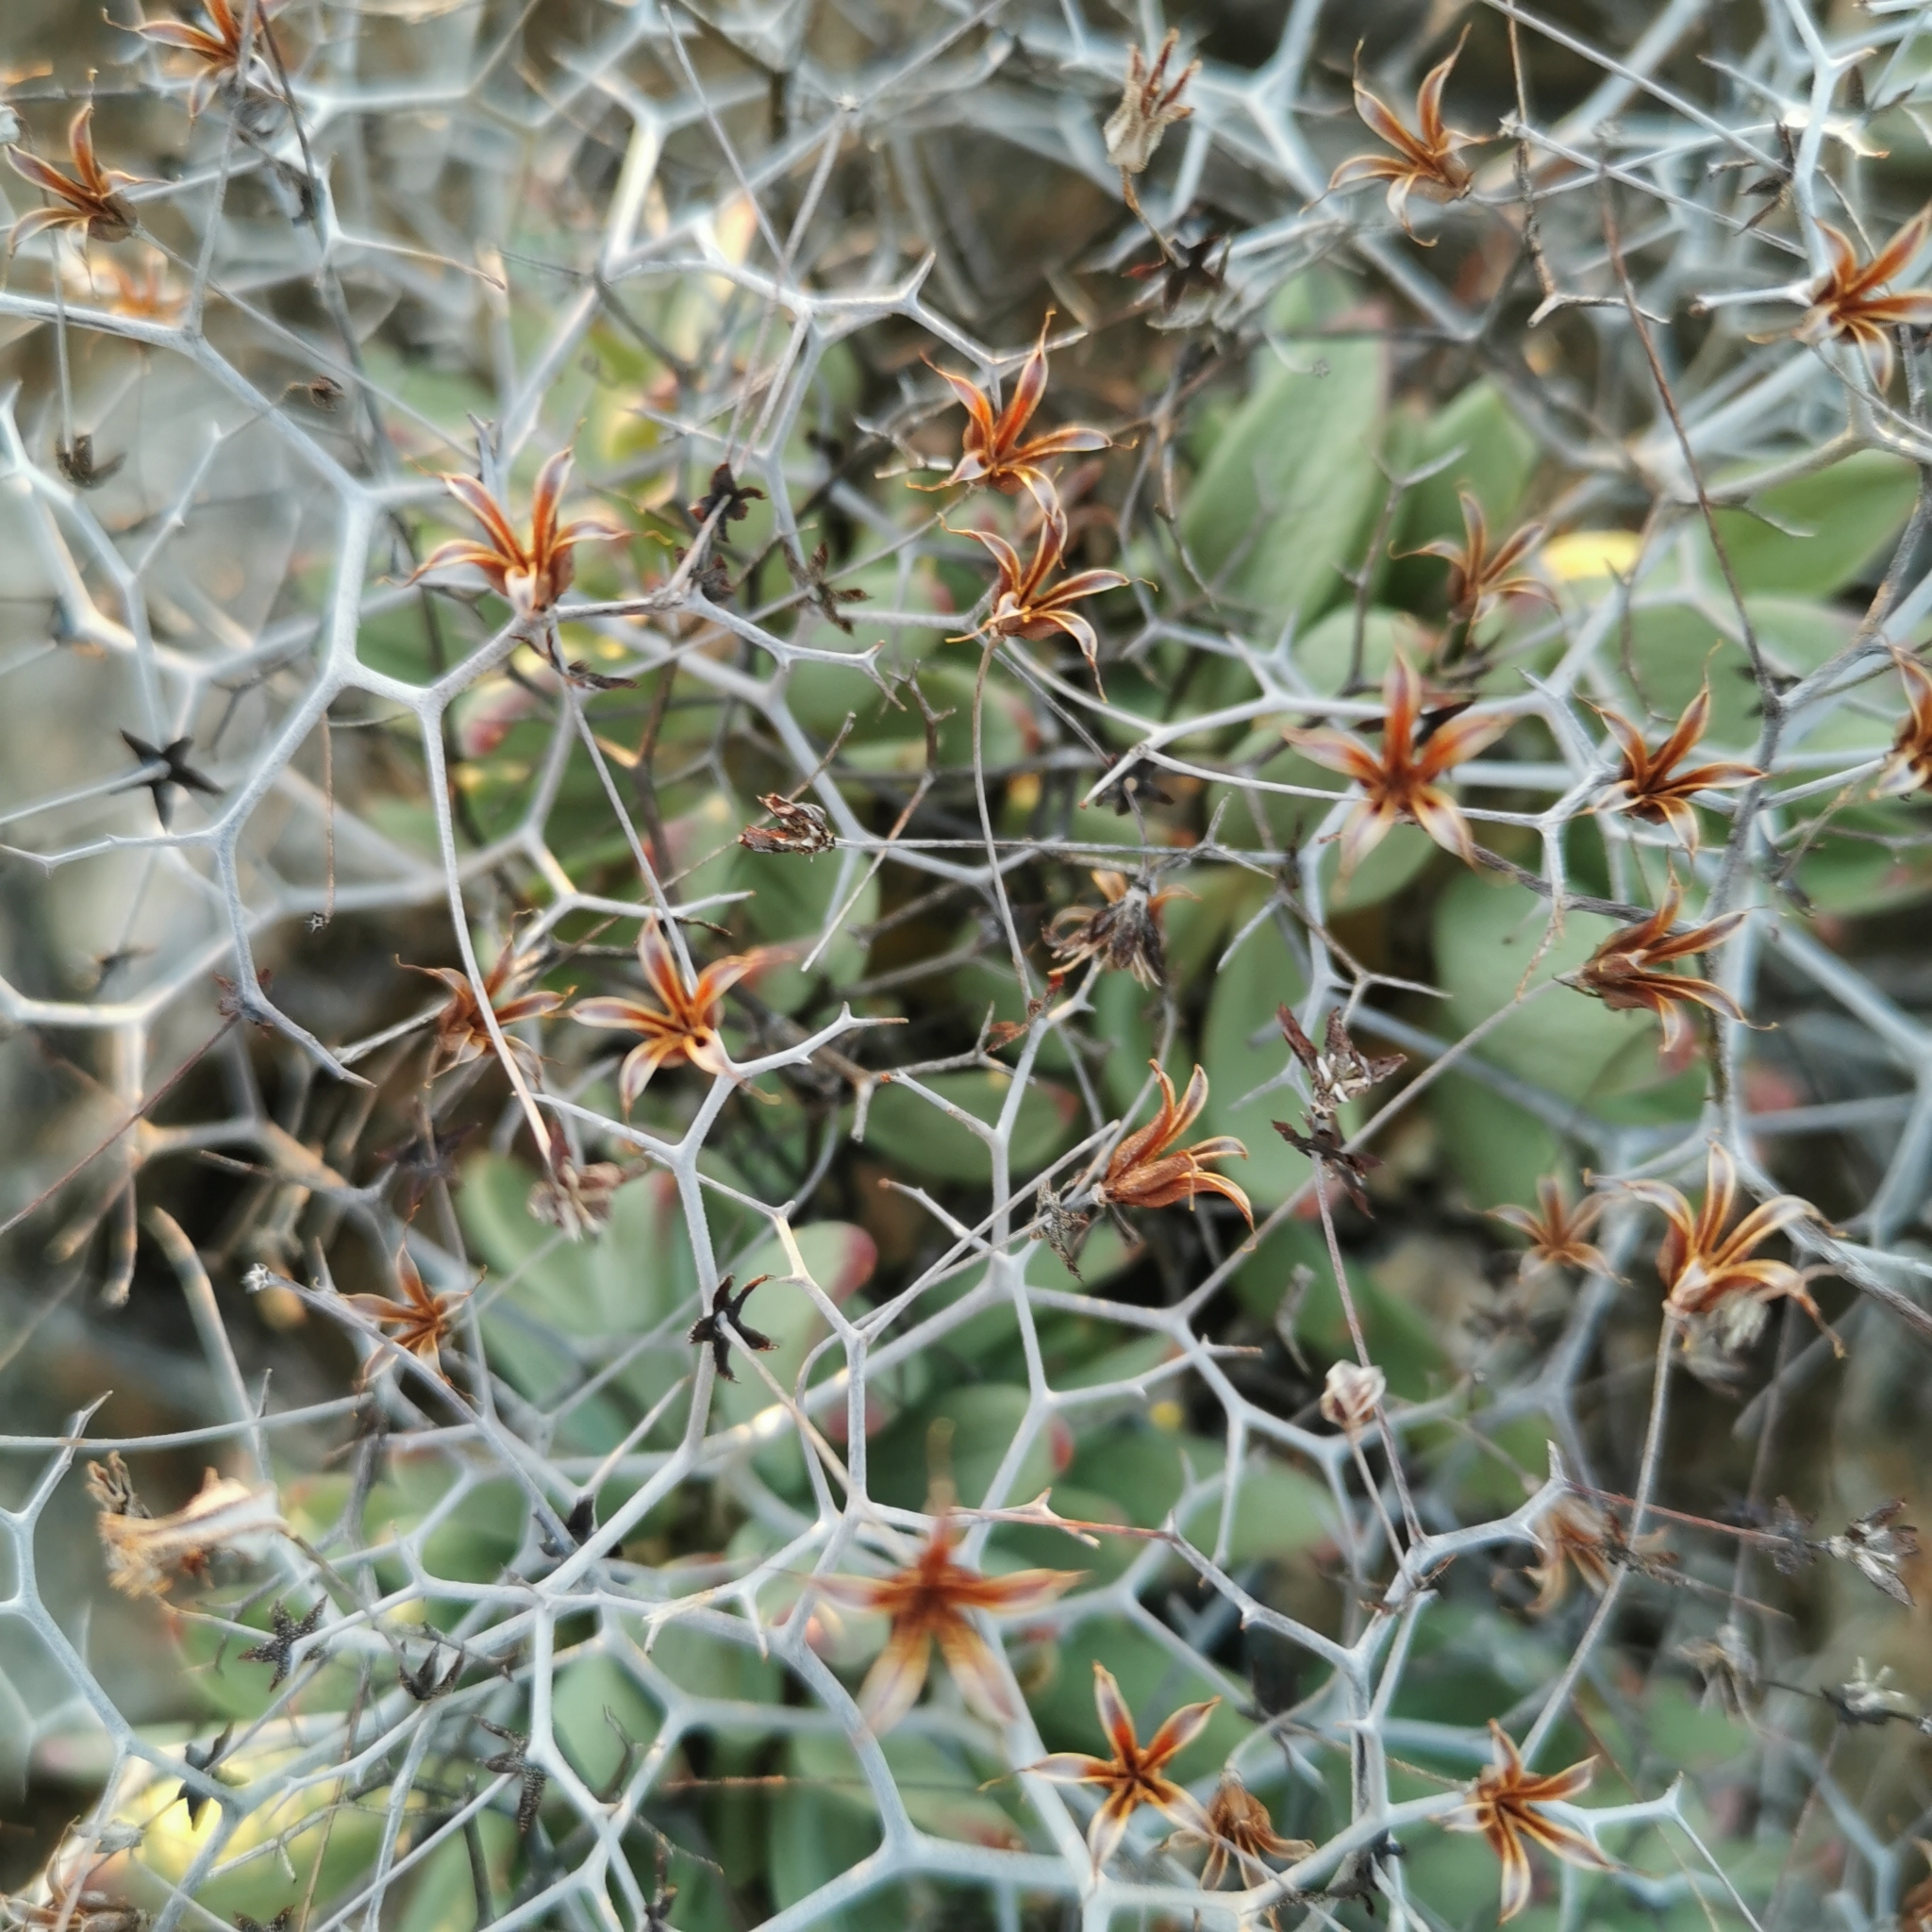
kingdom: Plantae
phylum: Tracheophyta
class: Magnoliopsida
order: Saxifragales
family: Crassulaceae
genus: Tylecodon
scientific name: Tylecodon reticulatus
